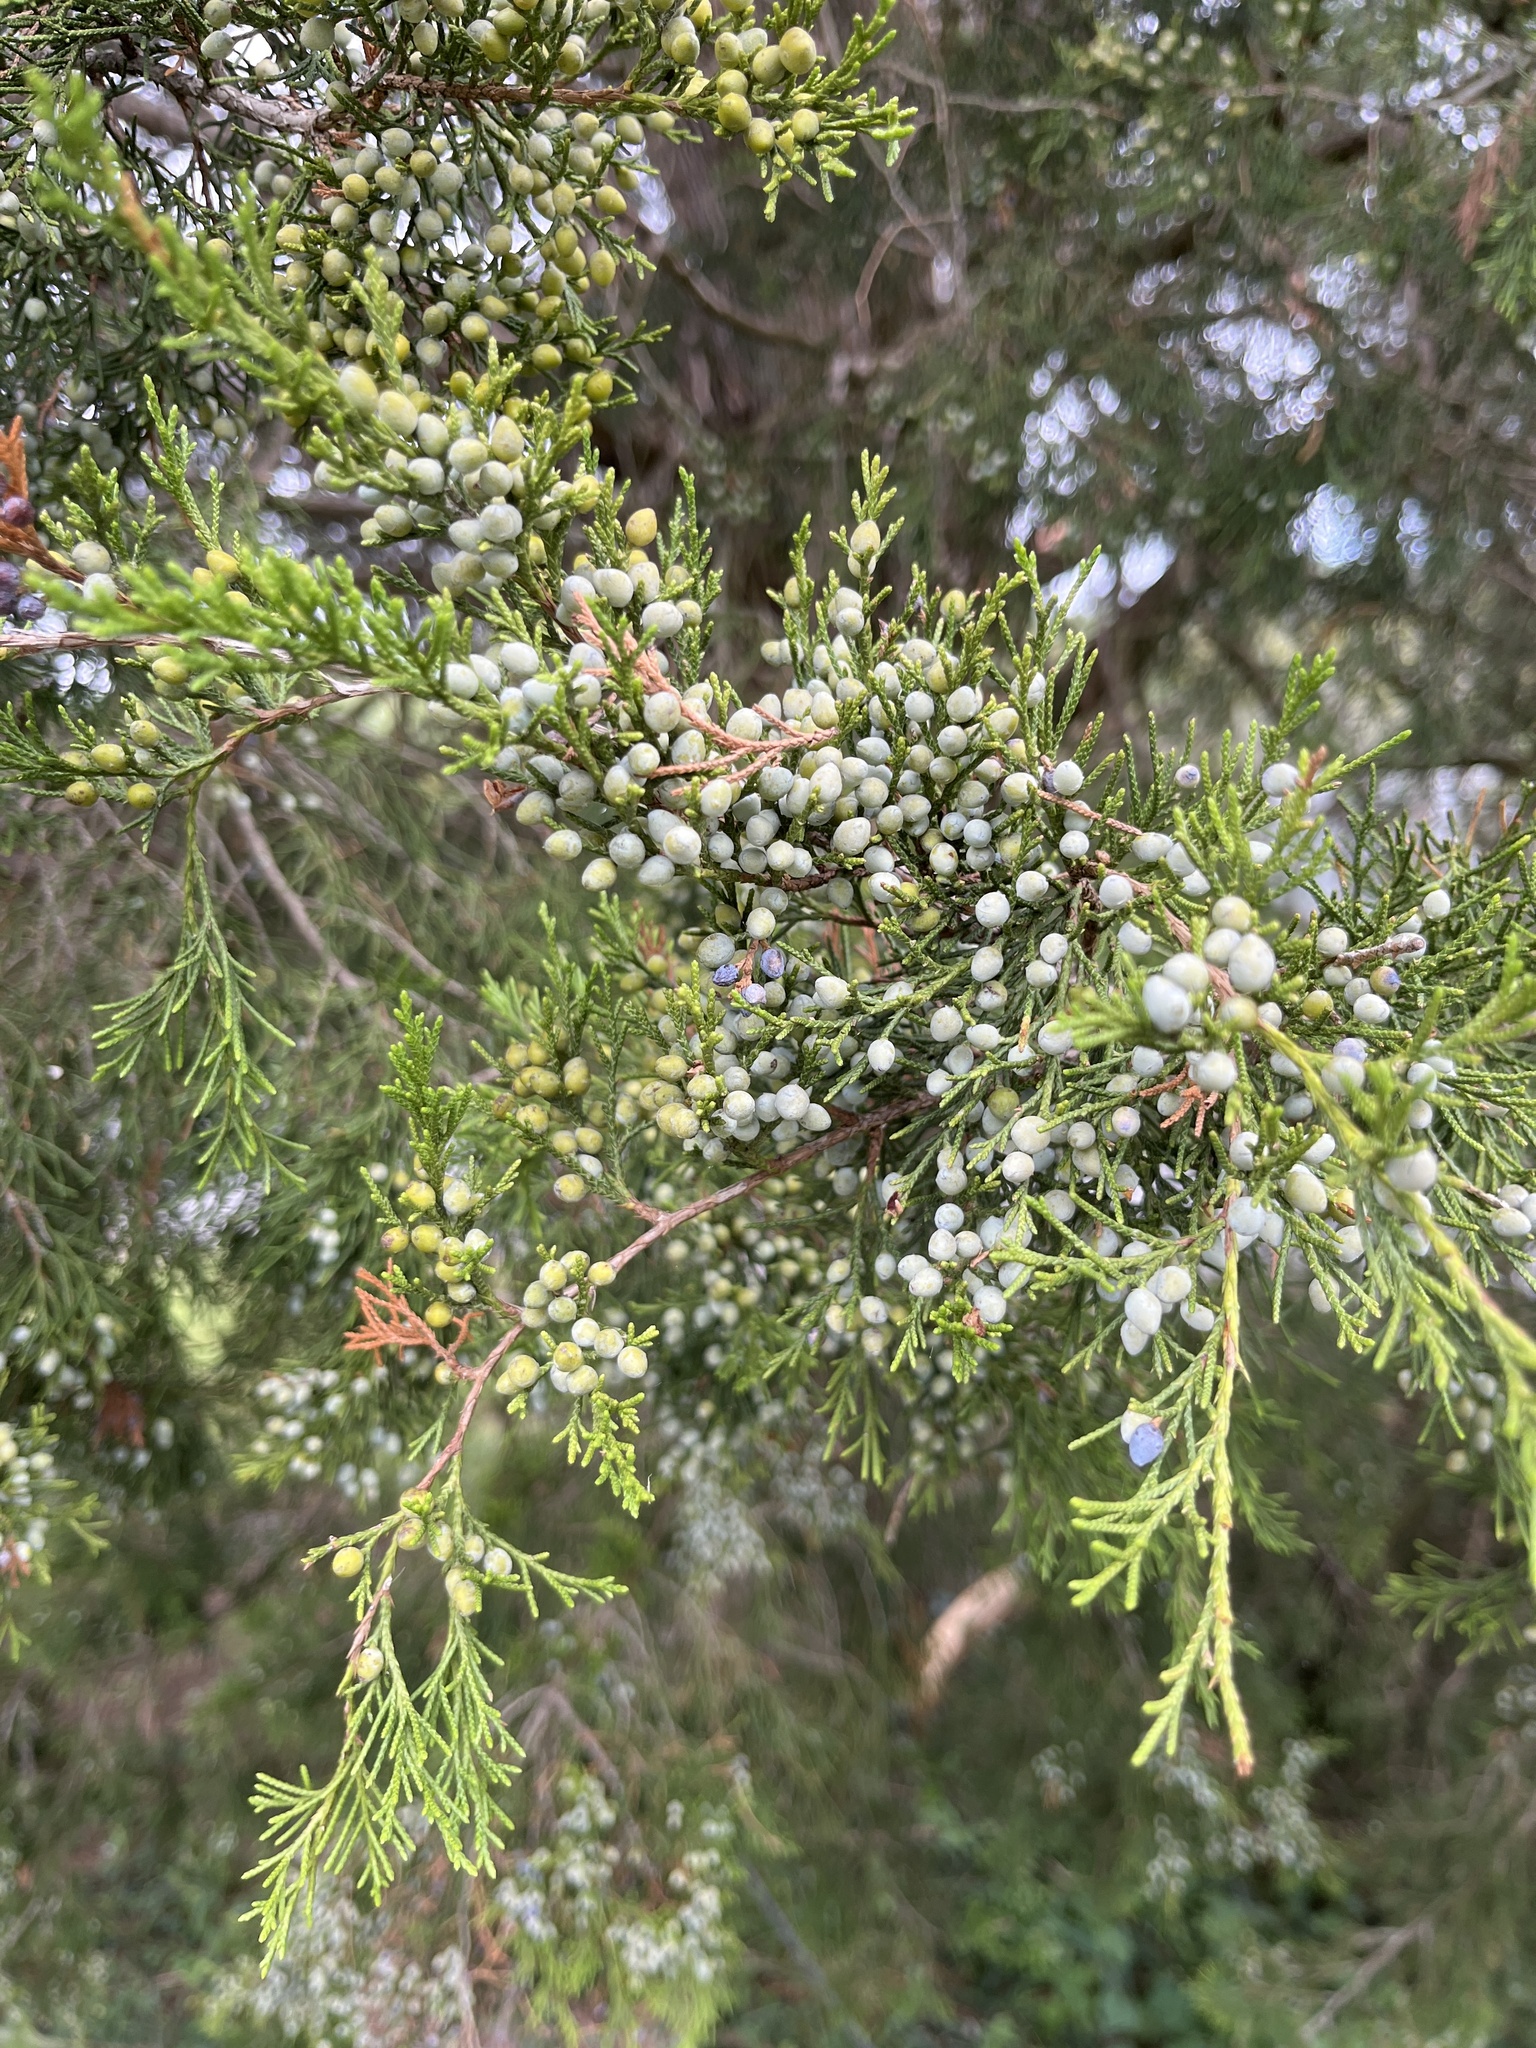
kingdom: Plantae
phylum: Tracheophyta
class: Pinopsida
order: Pinales
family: Cupressaceae
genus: Juniperus
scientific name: Juniperus virginiana
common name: Red juniper
